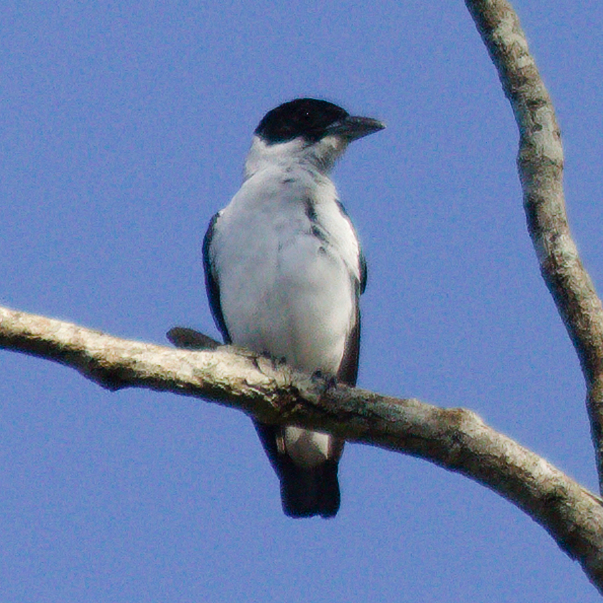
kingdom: Animalia
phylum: Chordata
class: Aves
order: Passeriformes
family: Cotingidae
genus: Tityra
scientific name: Tityra inquisitor
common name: Black-crowned tityra
